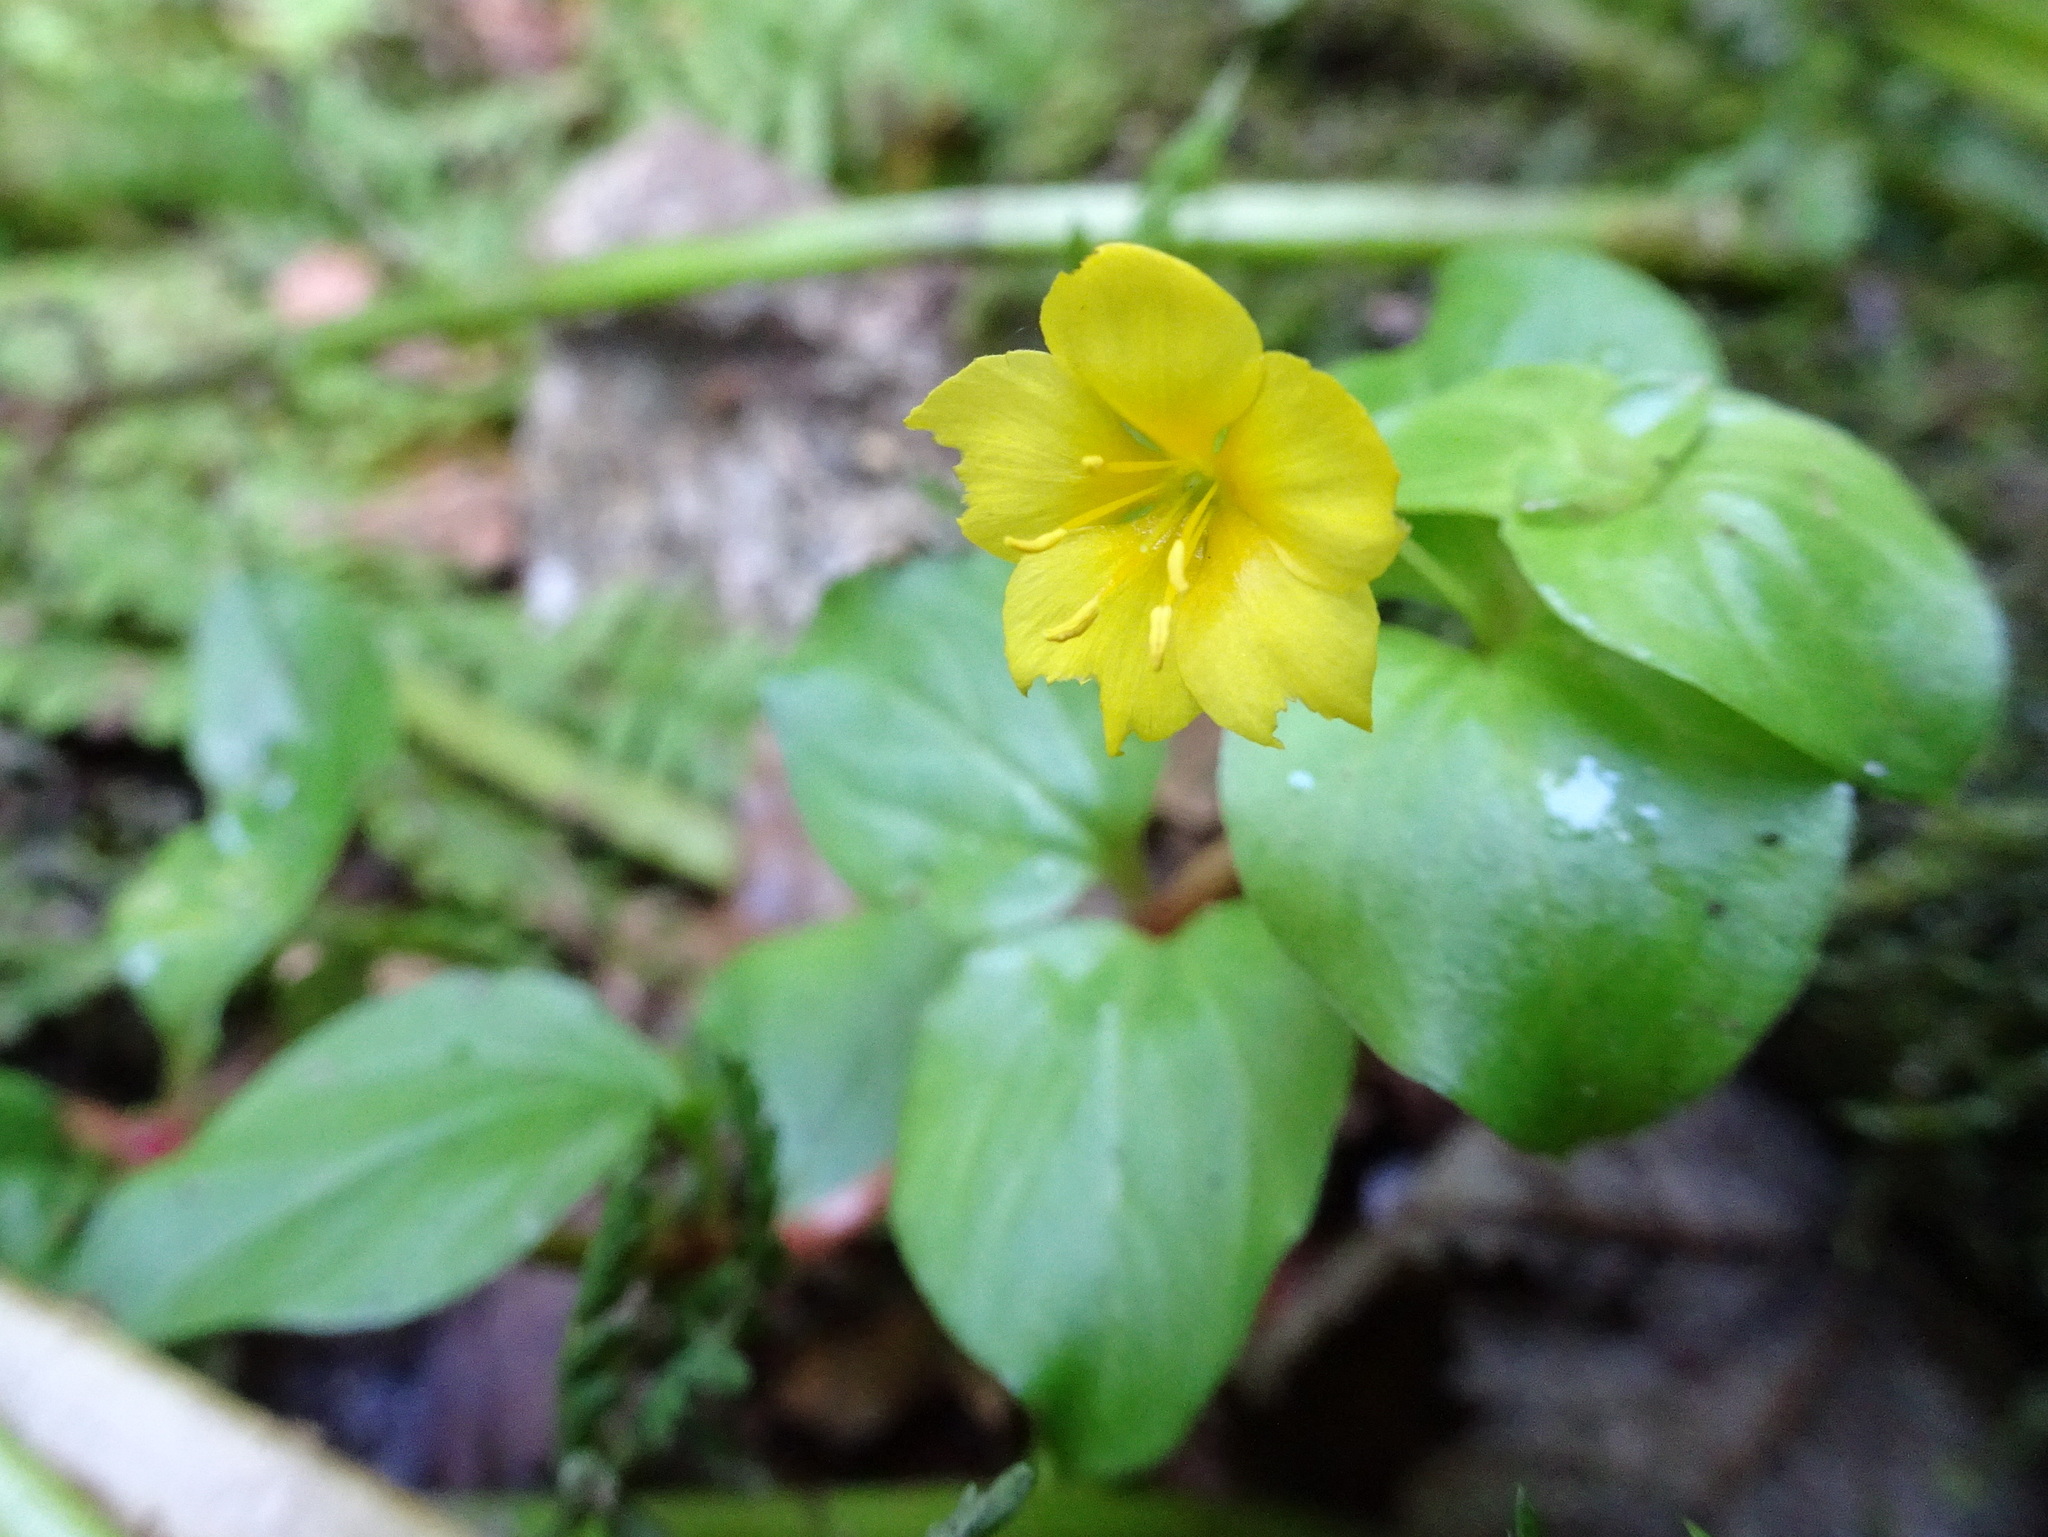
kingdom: Plantae
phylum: Tracheophyta
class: Magnoliopsida
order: Ericales
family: Primulaceae
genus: Lysimachia
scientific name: Lysimachia nemorum
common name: Yellow pimpernel
